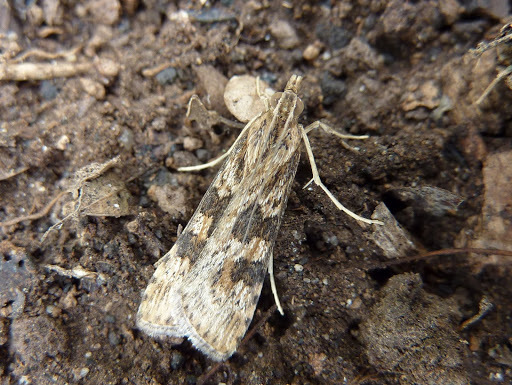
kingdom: Animalia
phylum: Arthropoda
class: Insecta
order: Lepidoptera
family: Crambidae
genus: Nomophila
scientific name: Nomophila nearctica
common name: American rush veneer
